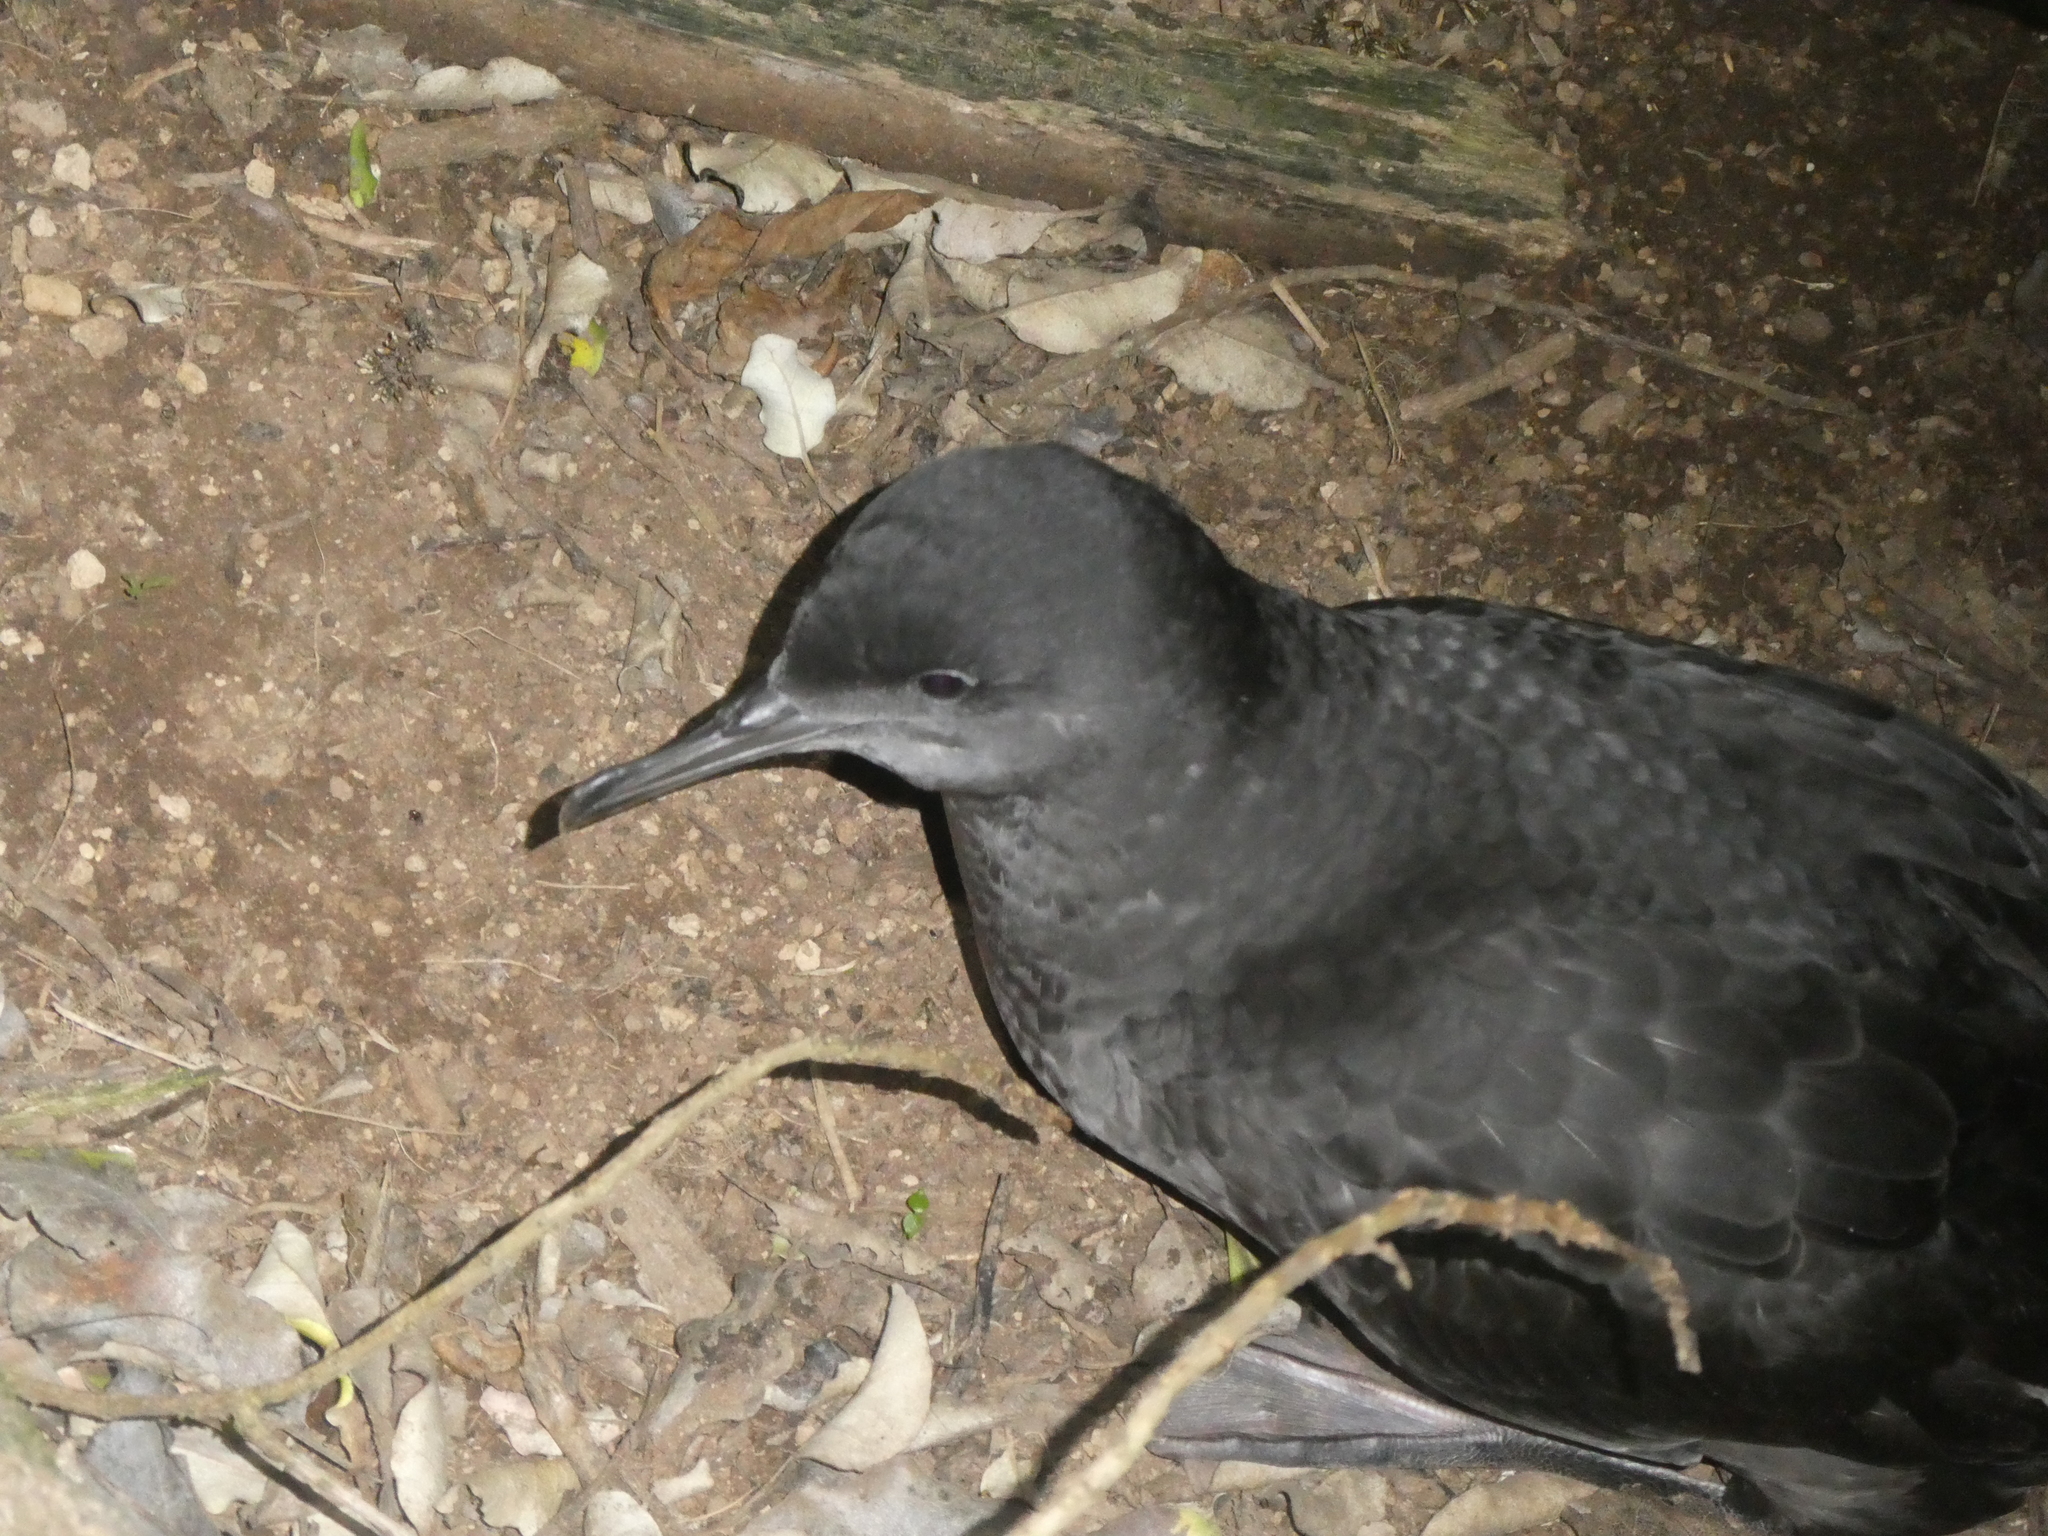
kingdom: Animalia
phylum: Chordata
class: Aves
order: Procellariiformes
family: Procellariidae
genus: Puffinus
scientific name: Puffinus griseus
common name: Sooty shearwater
